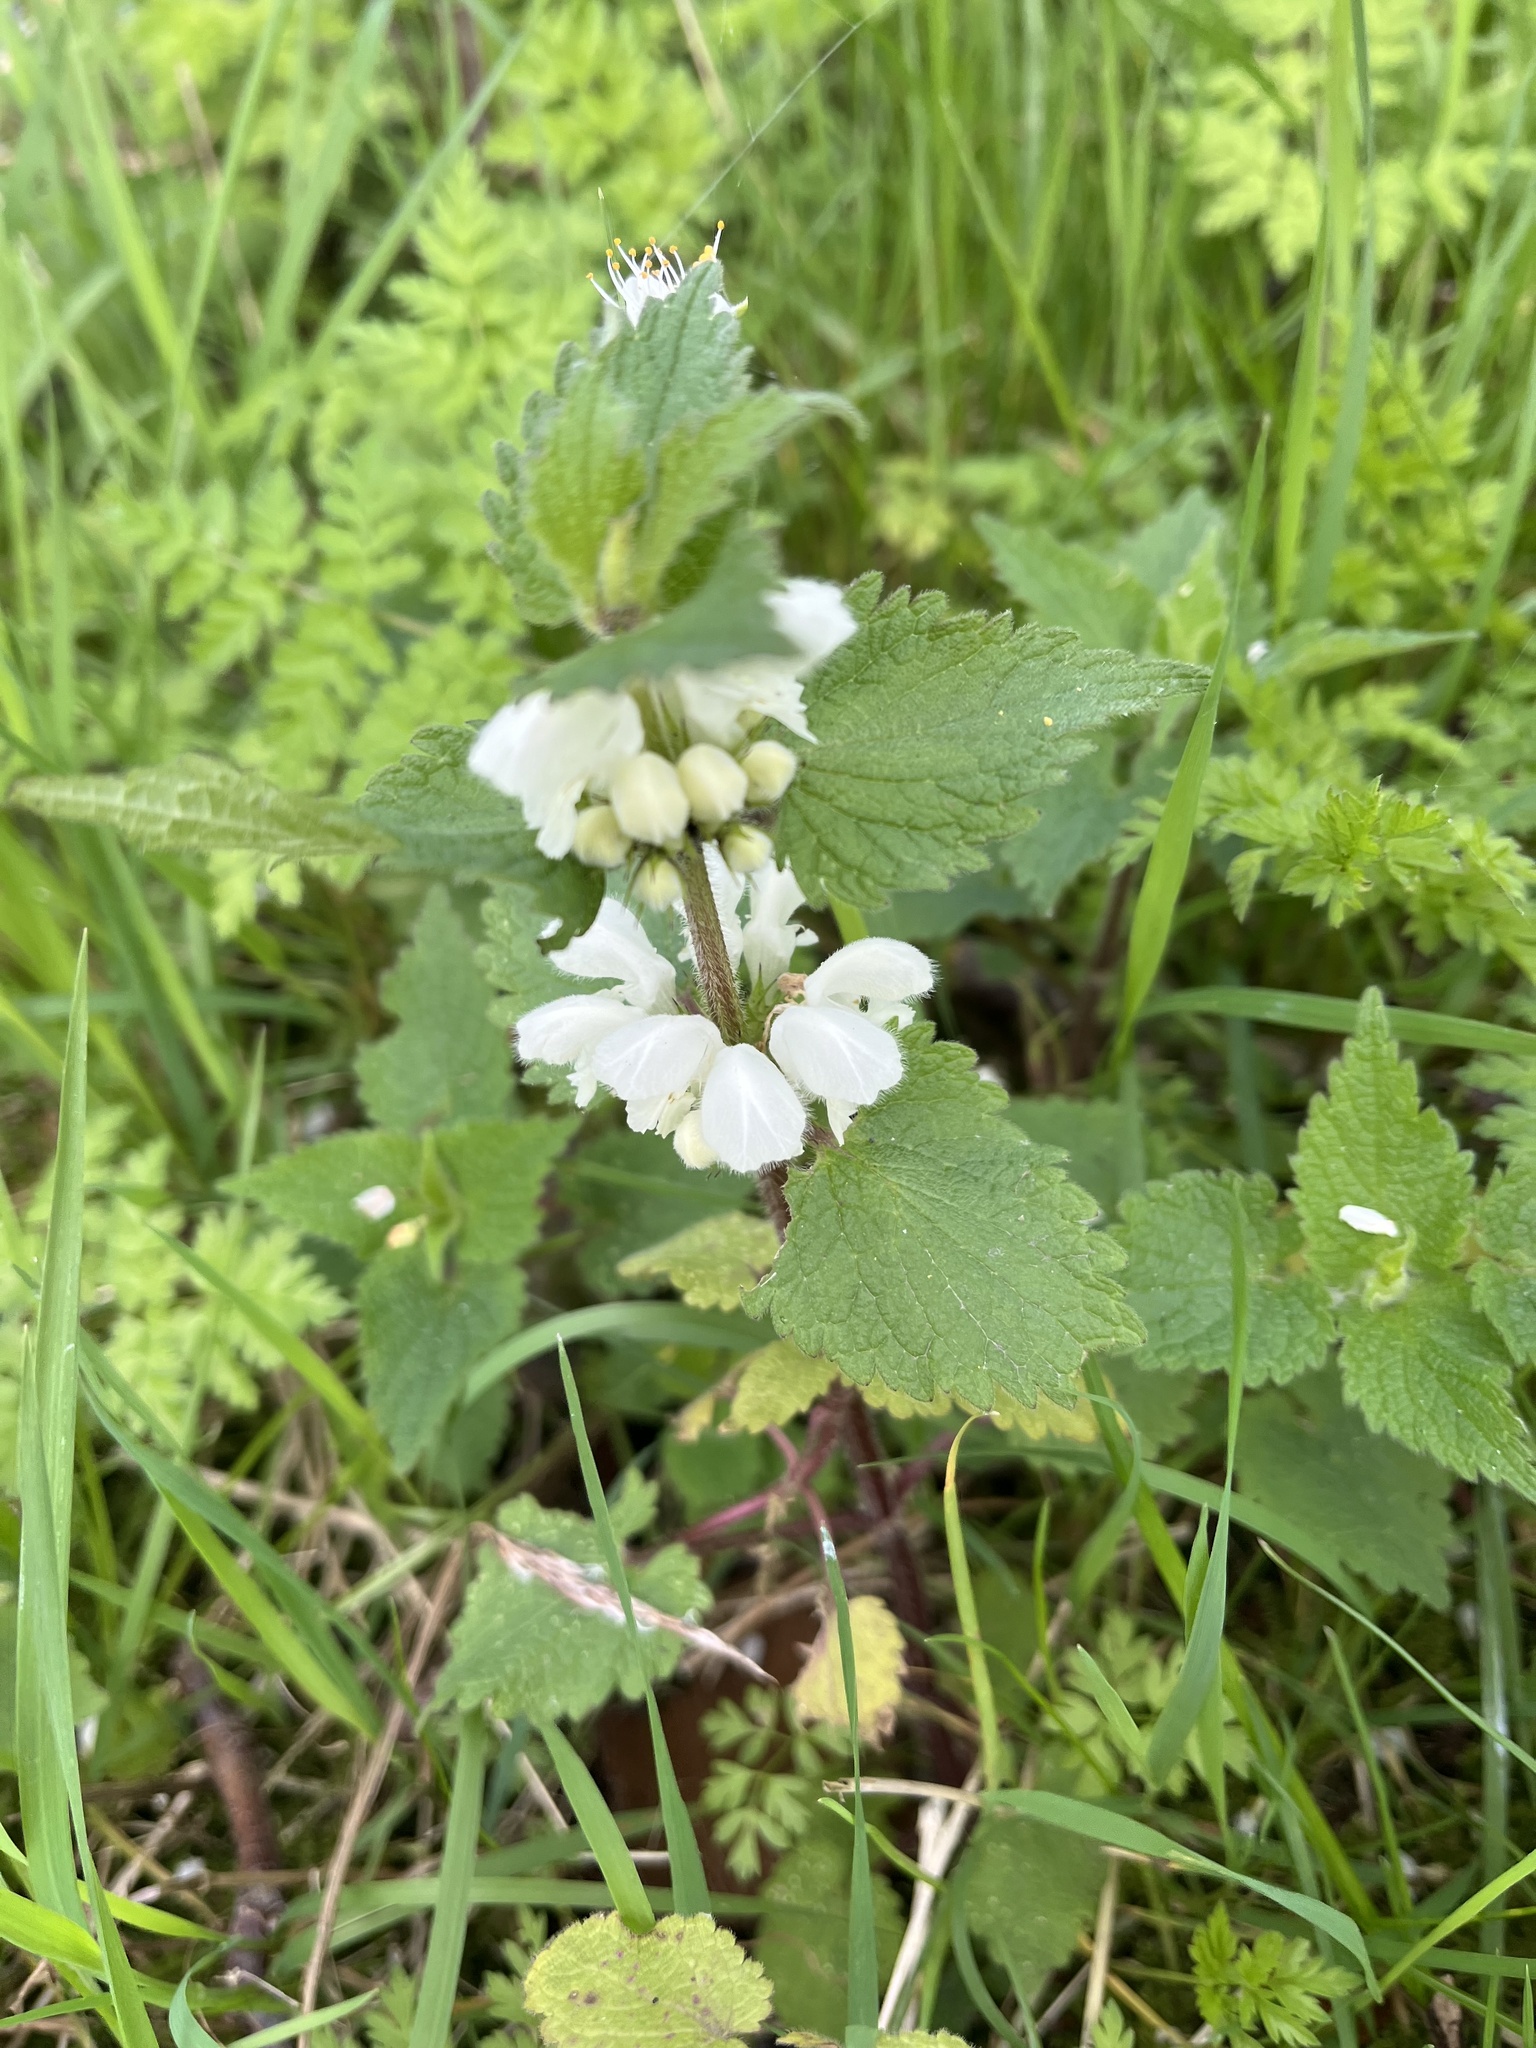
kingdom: Plantae
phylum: Tracheophyta
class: Magnoliopsida
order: Lamiales
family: Lamiaceae
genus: Lamium
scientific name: Lamium album
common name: White dead-nettle
